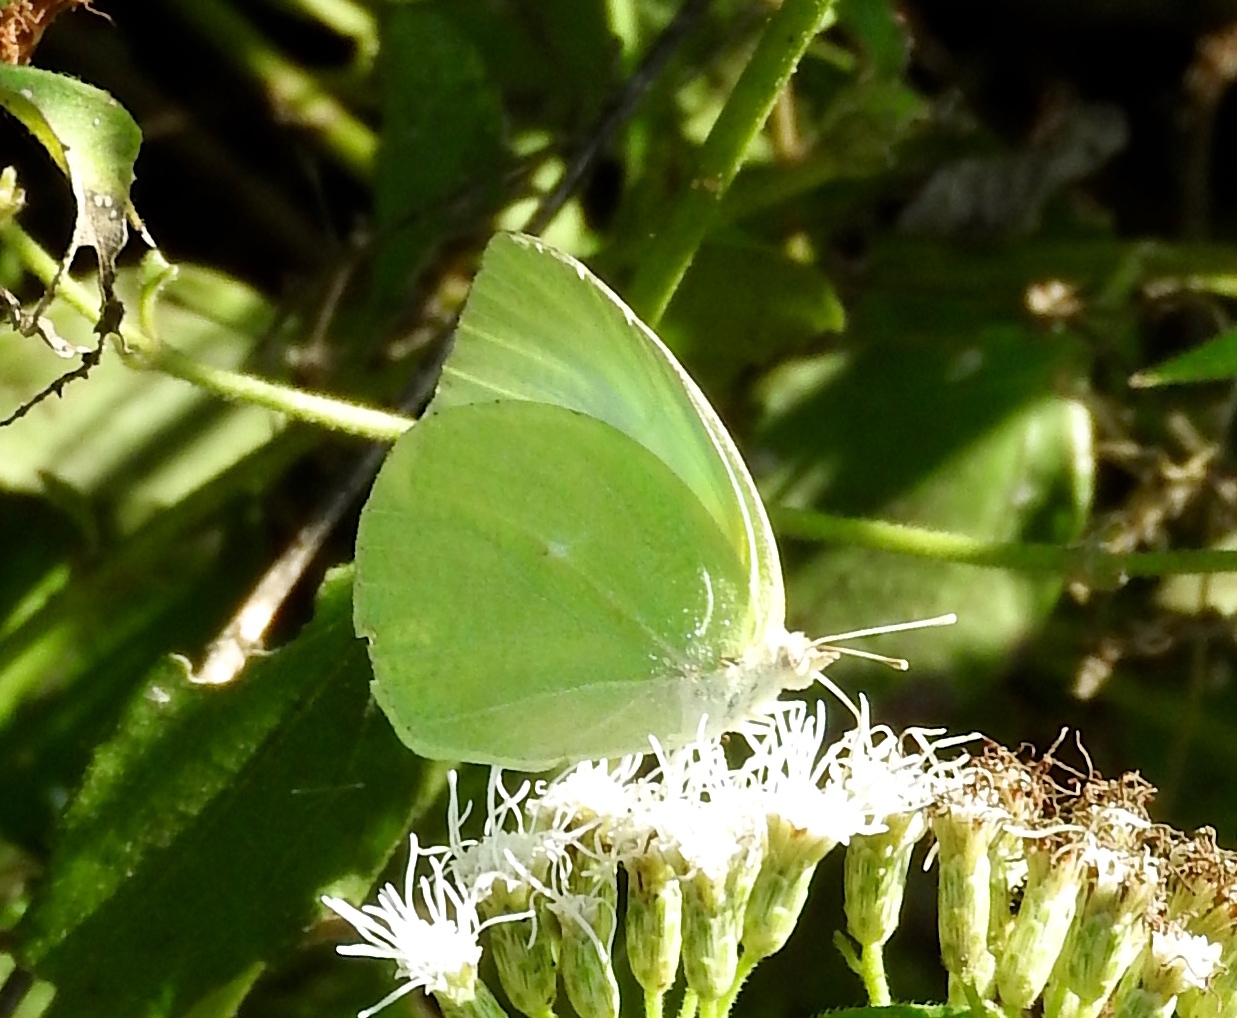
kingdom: Animalia
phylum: Arthropoda
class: Insecta
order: Lepidoptera
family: Pieridae
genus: Kricogonia
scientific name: Kricogonia lyside
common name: Guayacan sulphur,
